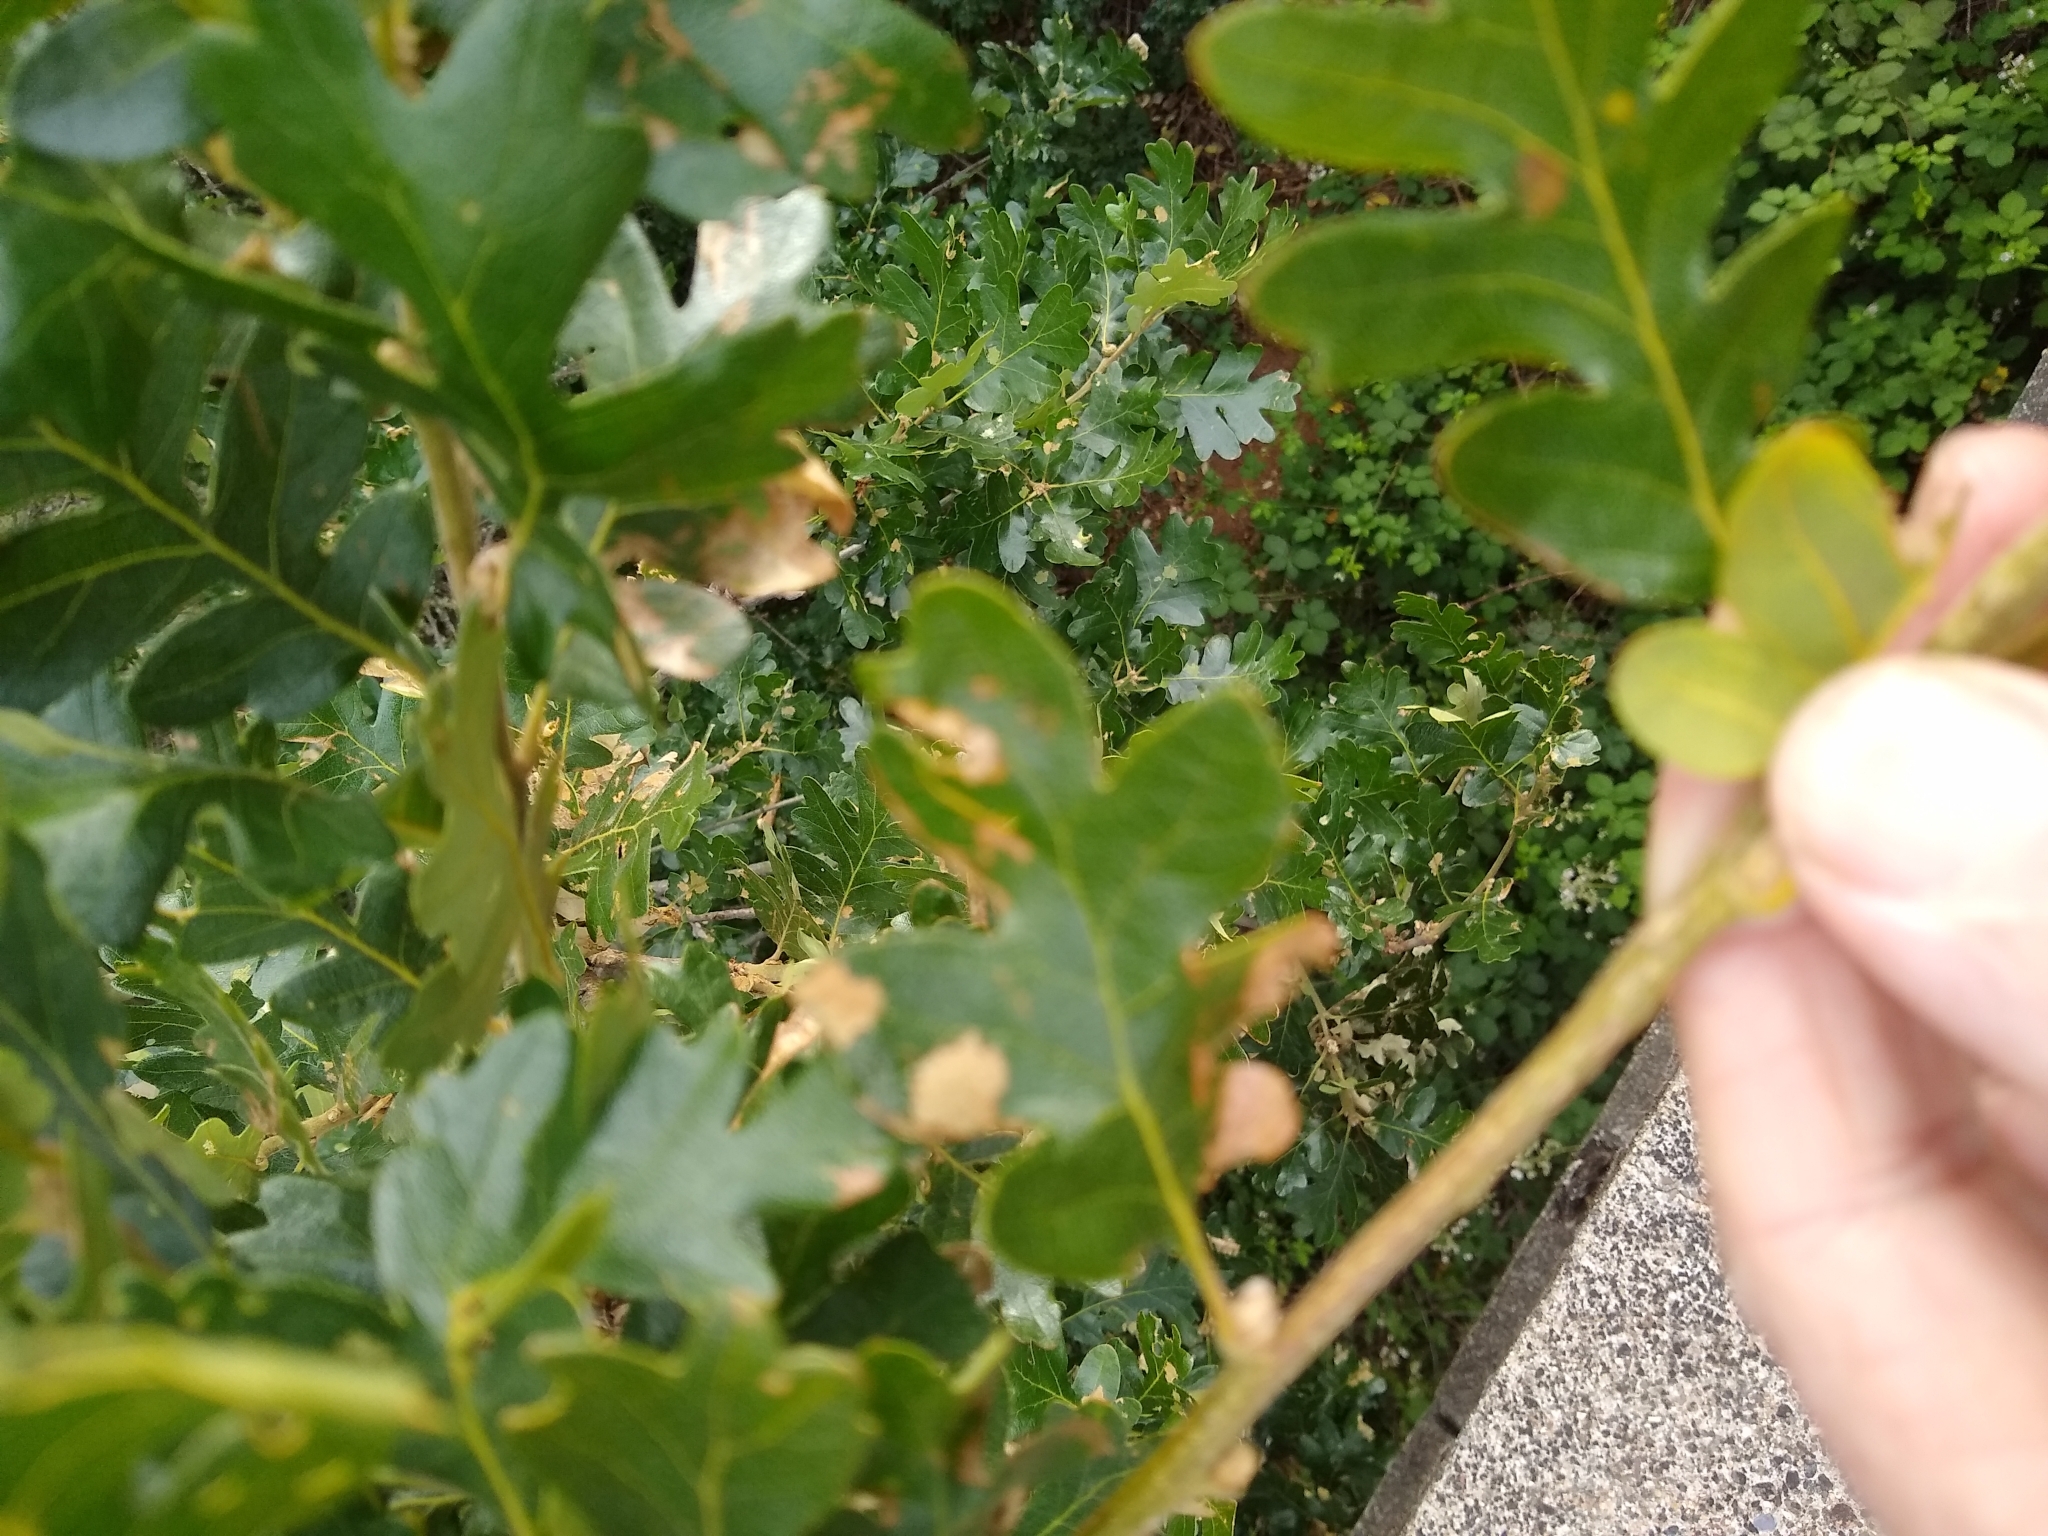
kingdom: Plantae
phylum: Tracheophyta
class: Magnoliopsida
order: Fagales
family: Fagaceae
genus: Quercus
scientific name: Quercus garryana
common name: Garry oak
